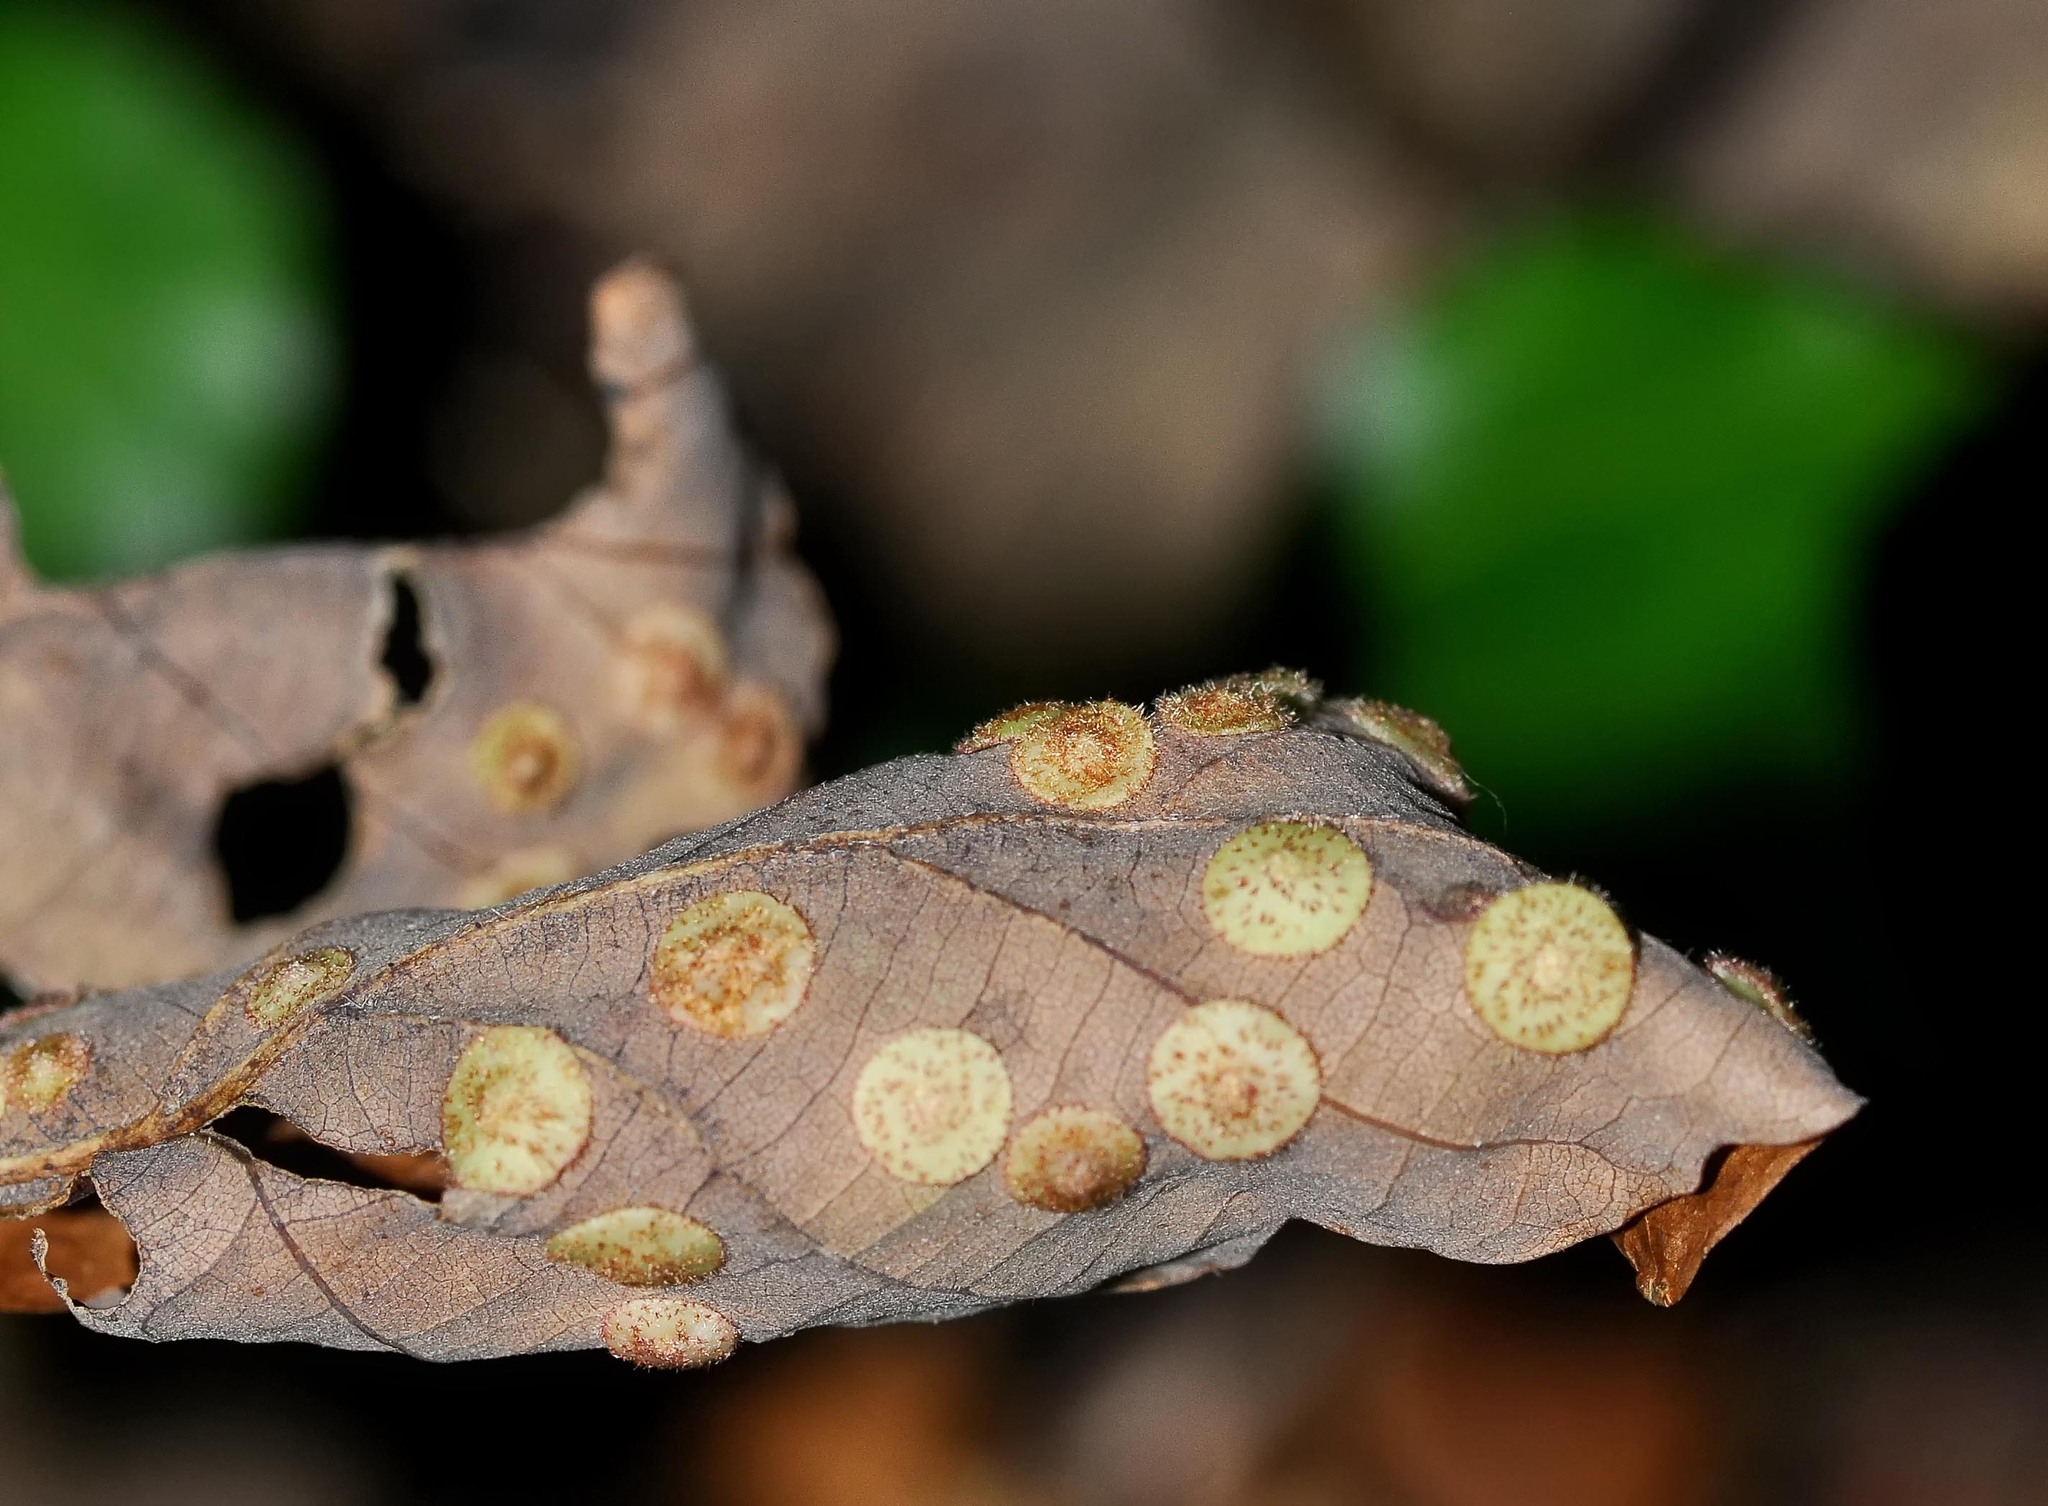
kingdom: Animalia
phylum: Arthropoda
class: Insecta
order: Hymenoptera
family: Cynipidae
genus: Neuroterus
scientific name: Neuroterus quercusbaccarum
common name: Common spangle gall
